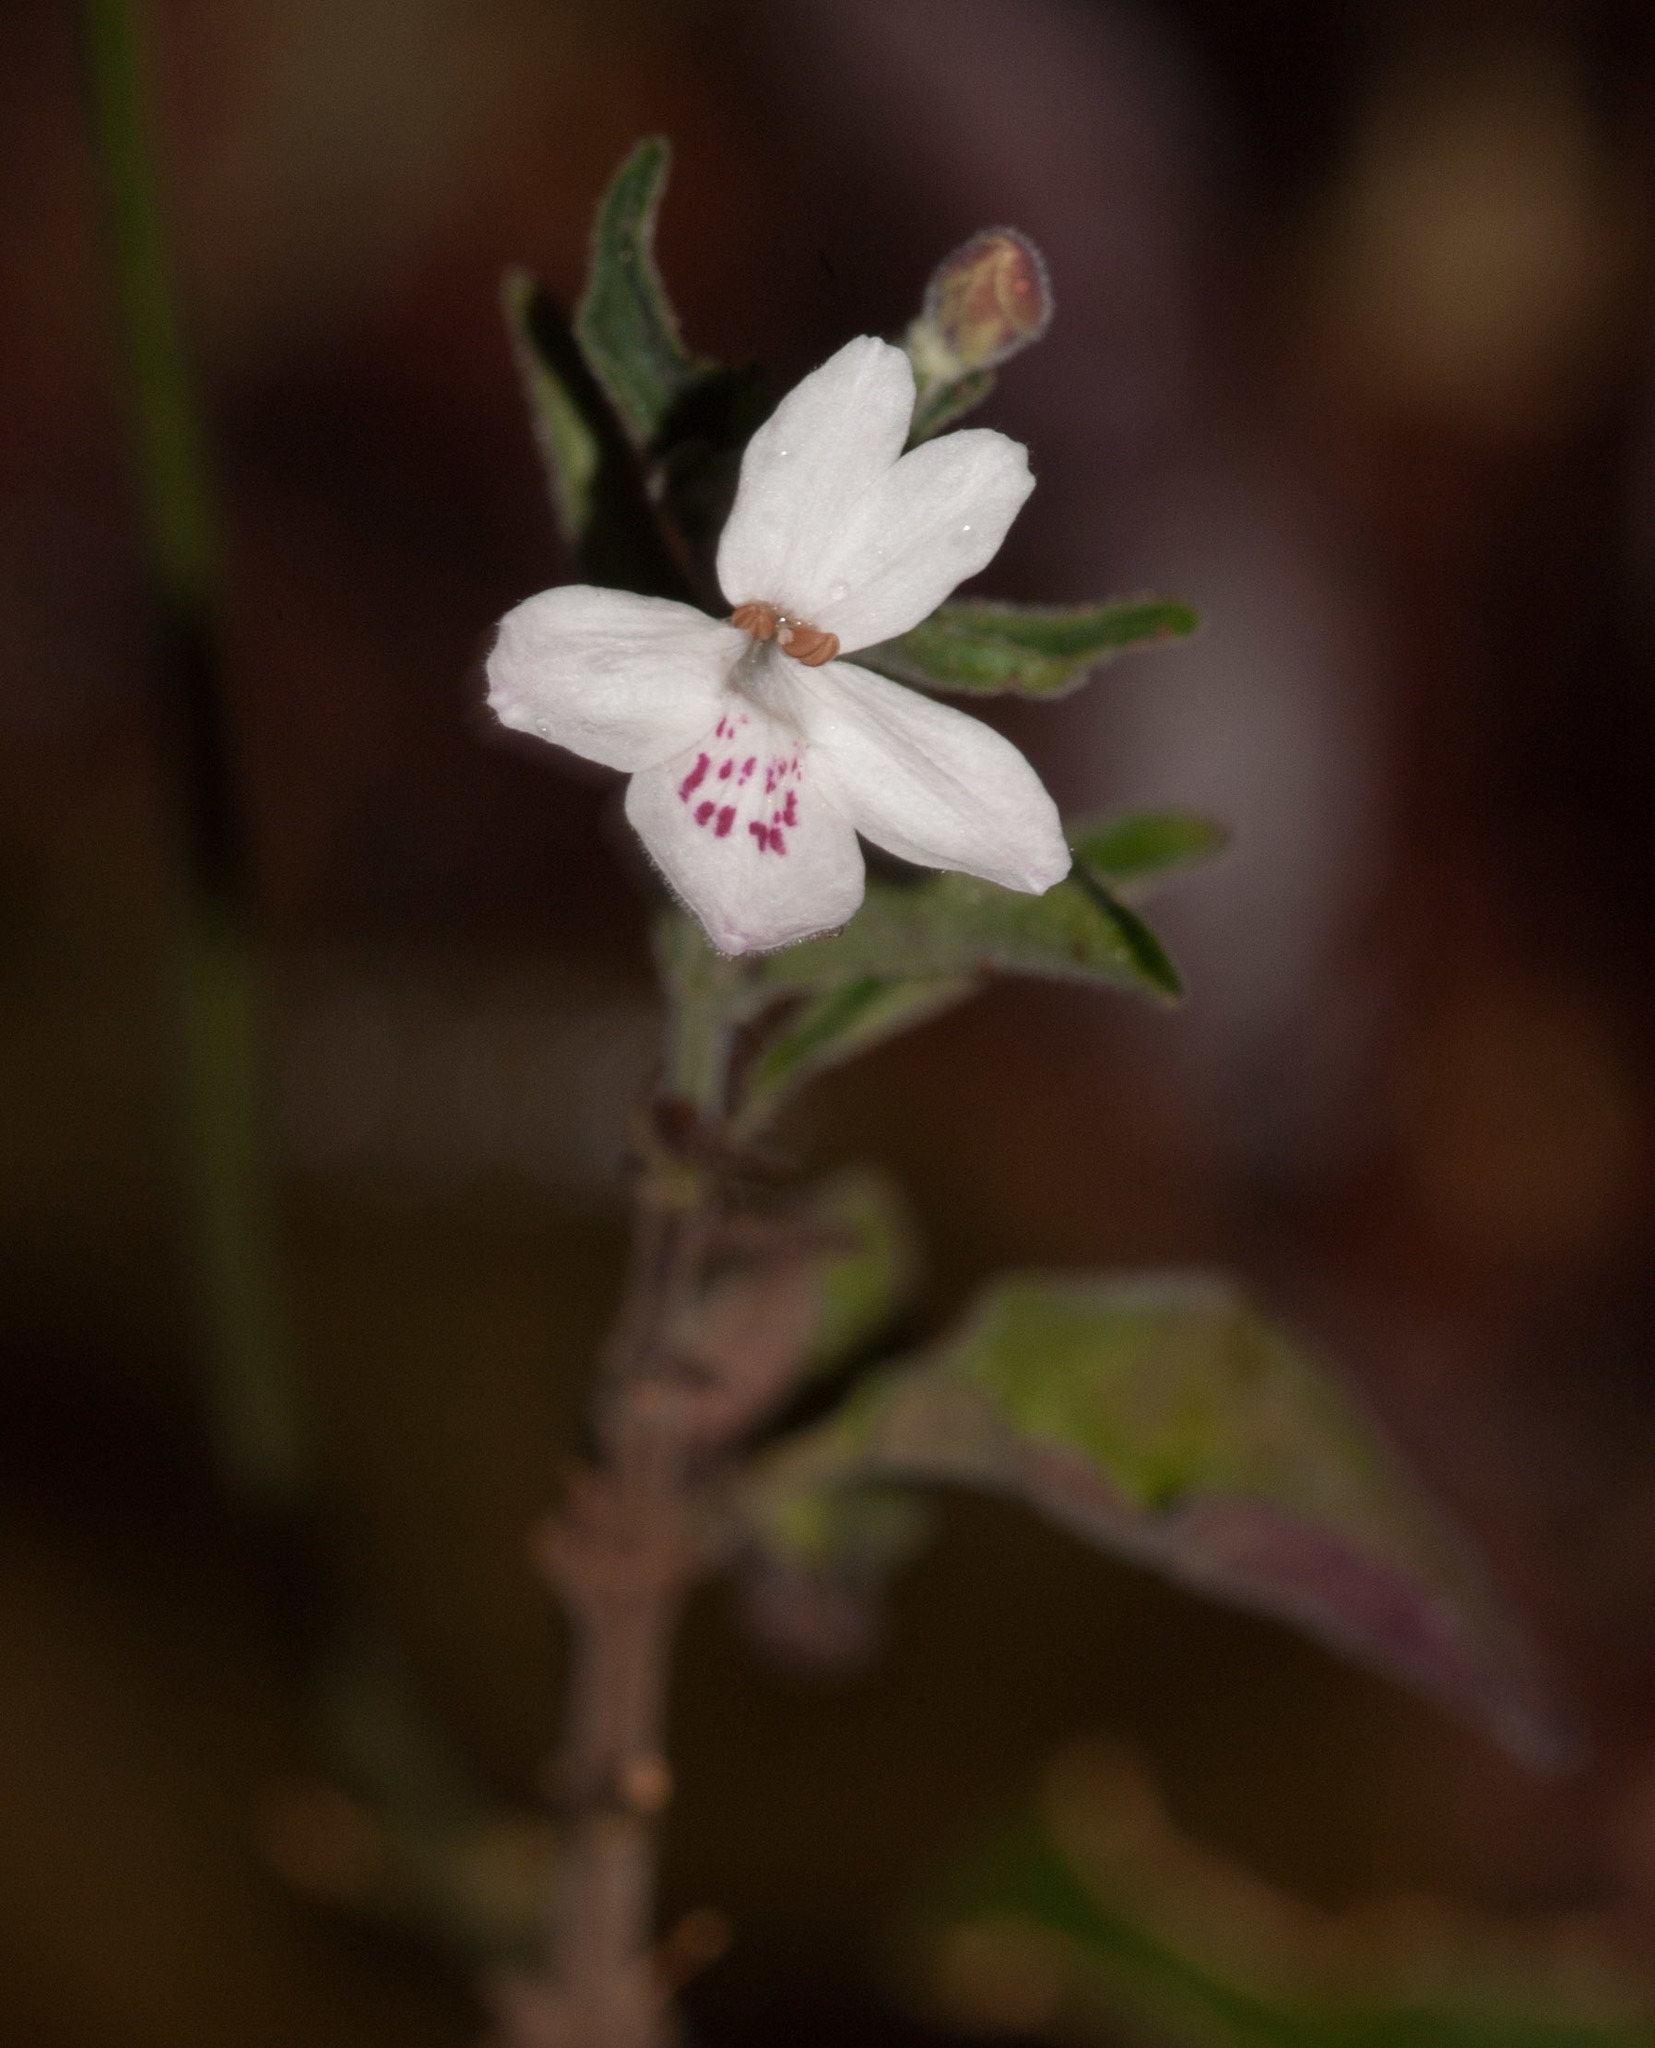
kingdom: Plantae
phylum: Tracheophyta
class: Magnoliopsida
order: Lamiales
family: Acanthaceae
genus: Pseuderanthemum
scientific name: Pseuderanthemum variabile
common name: Night and afternoon
